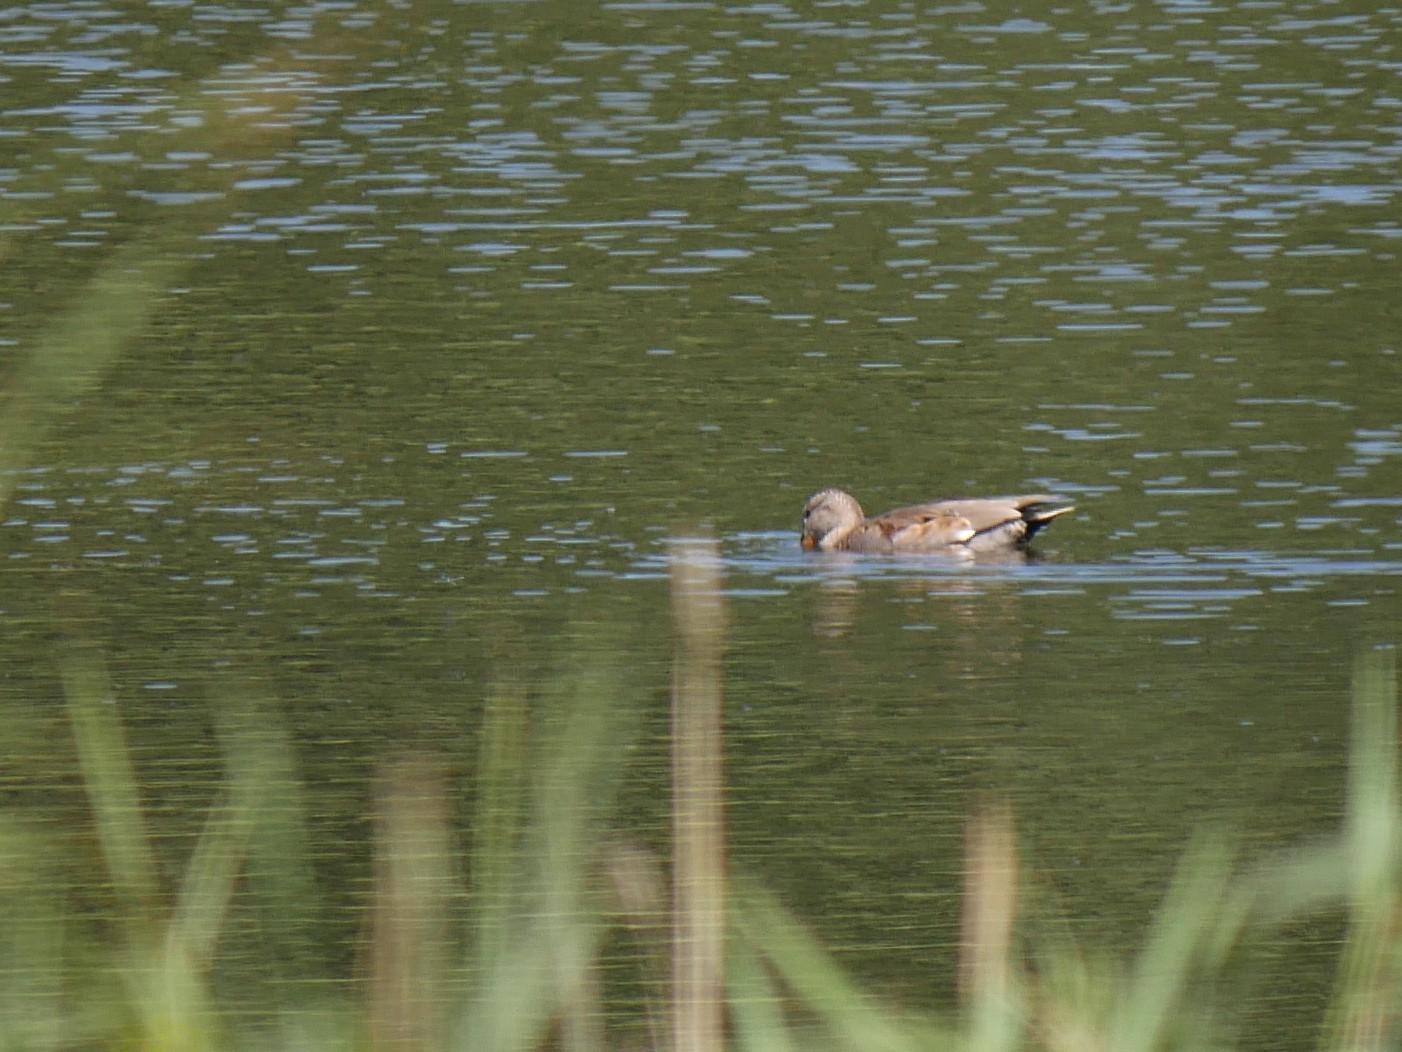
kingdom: Animalia
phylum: Chordata
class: Aves
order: Anseriformes
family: Anatidae
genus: Mareca
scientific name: Mareca strepera
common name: Gadwall
